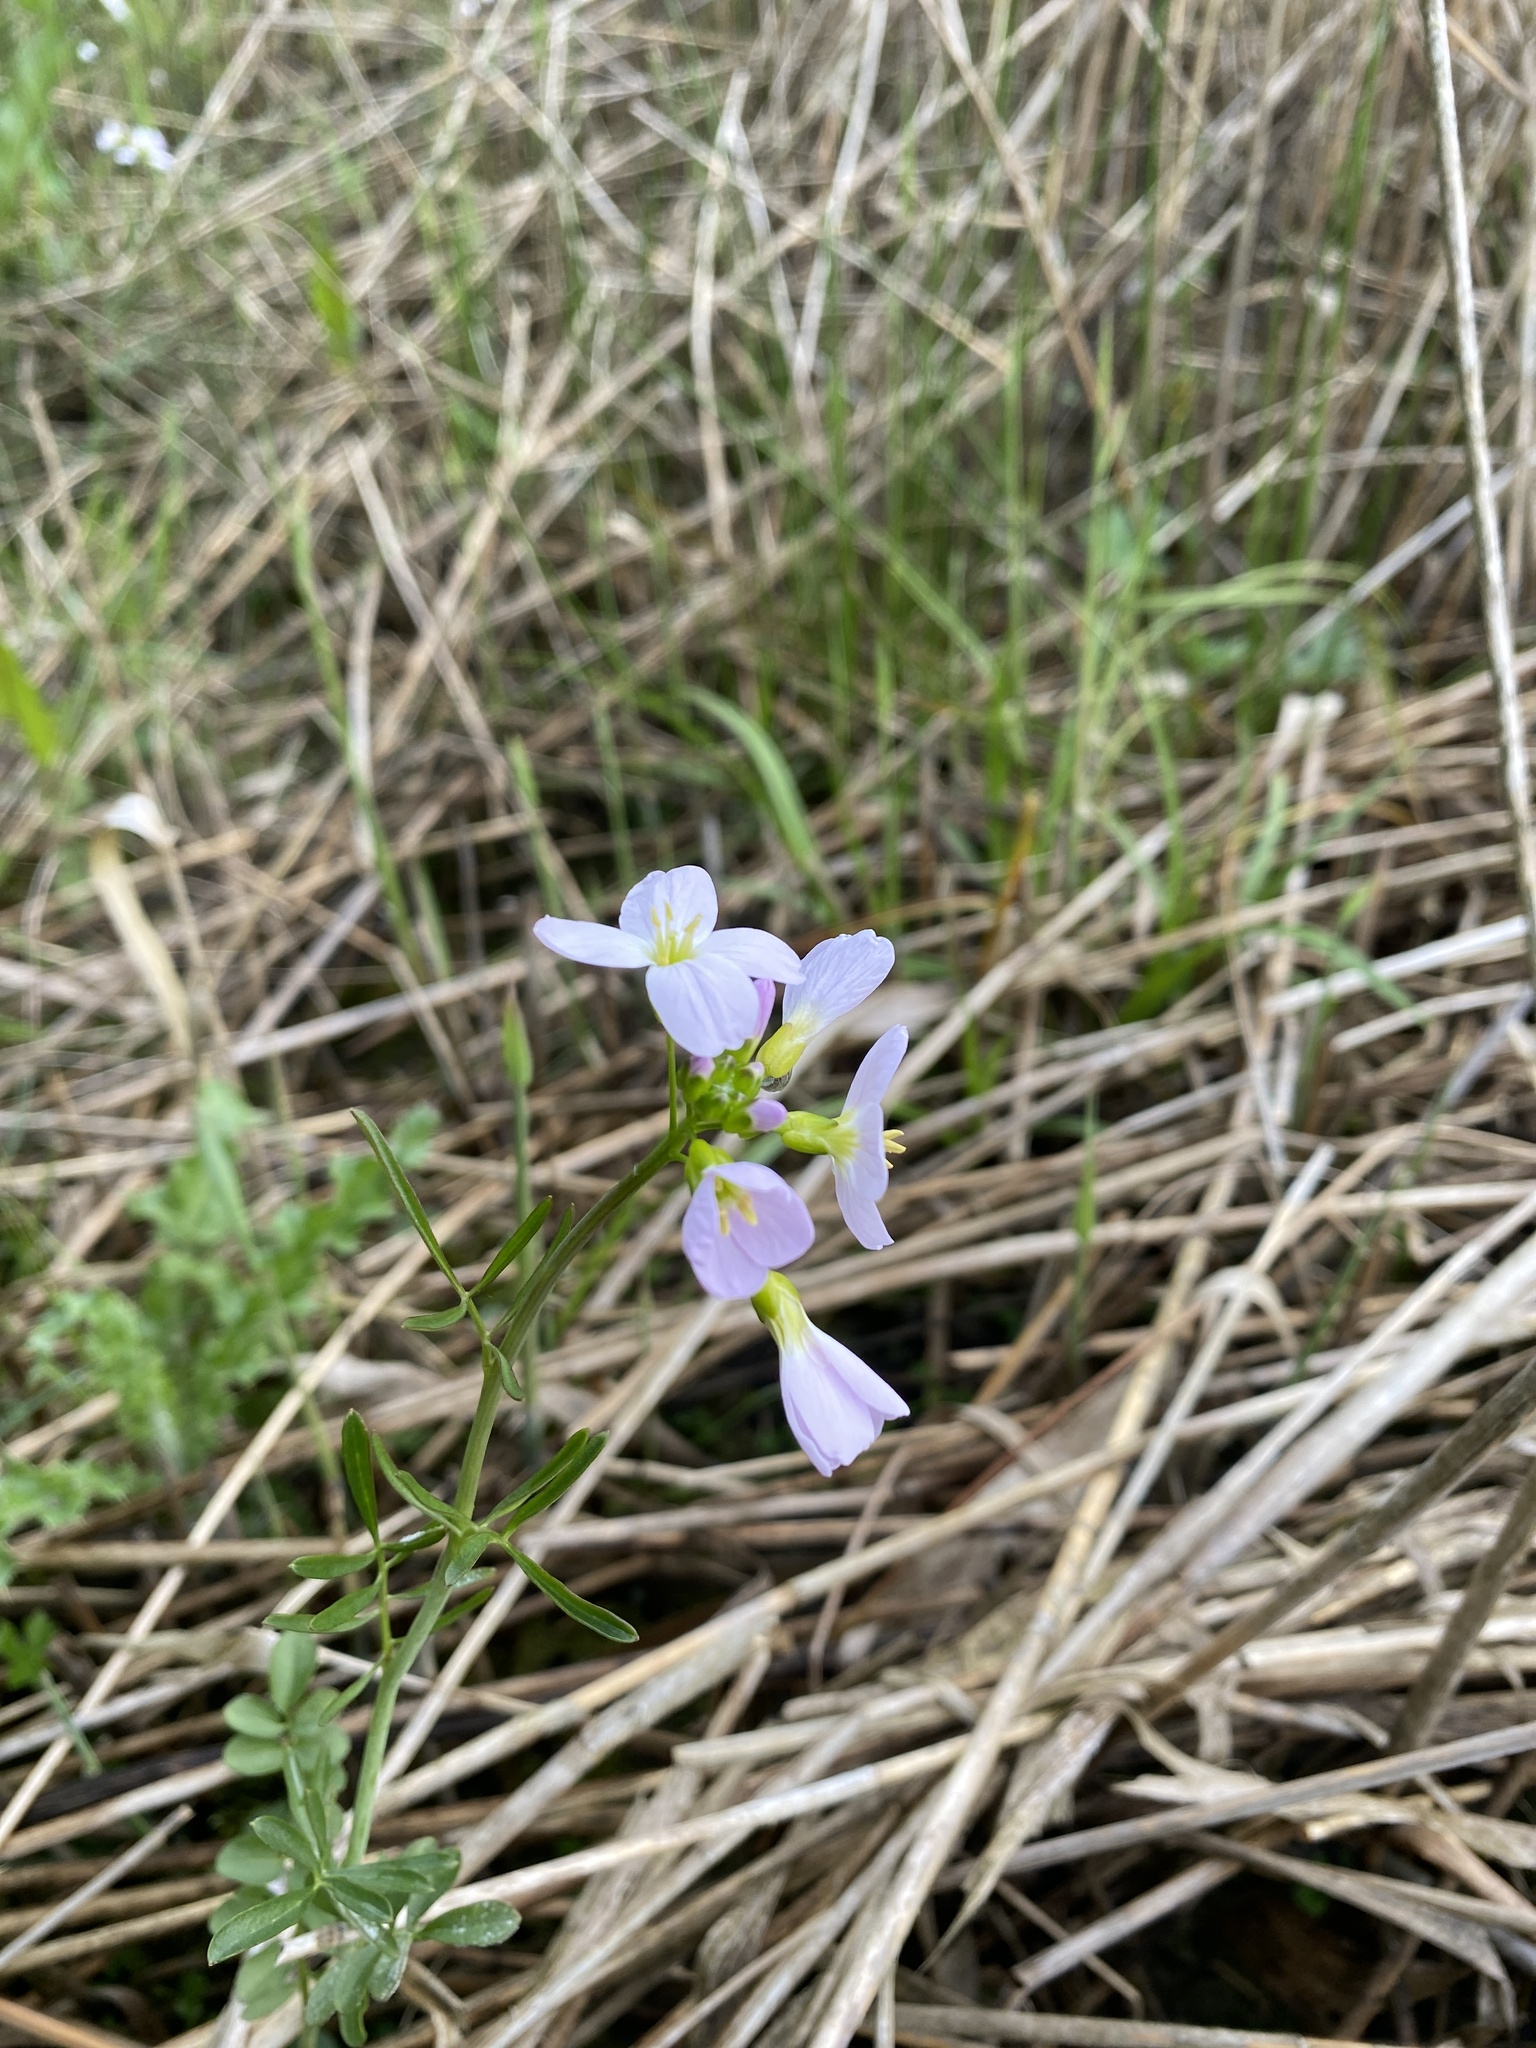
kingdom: Plantae
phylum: Tracheophyta
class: Magnoliopsida
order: Brassicales
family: Brassicaceae
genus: Cardamine
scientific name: Cardamine pratensis
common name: Cuckoo flower
